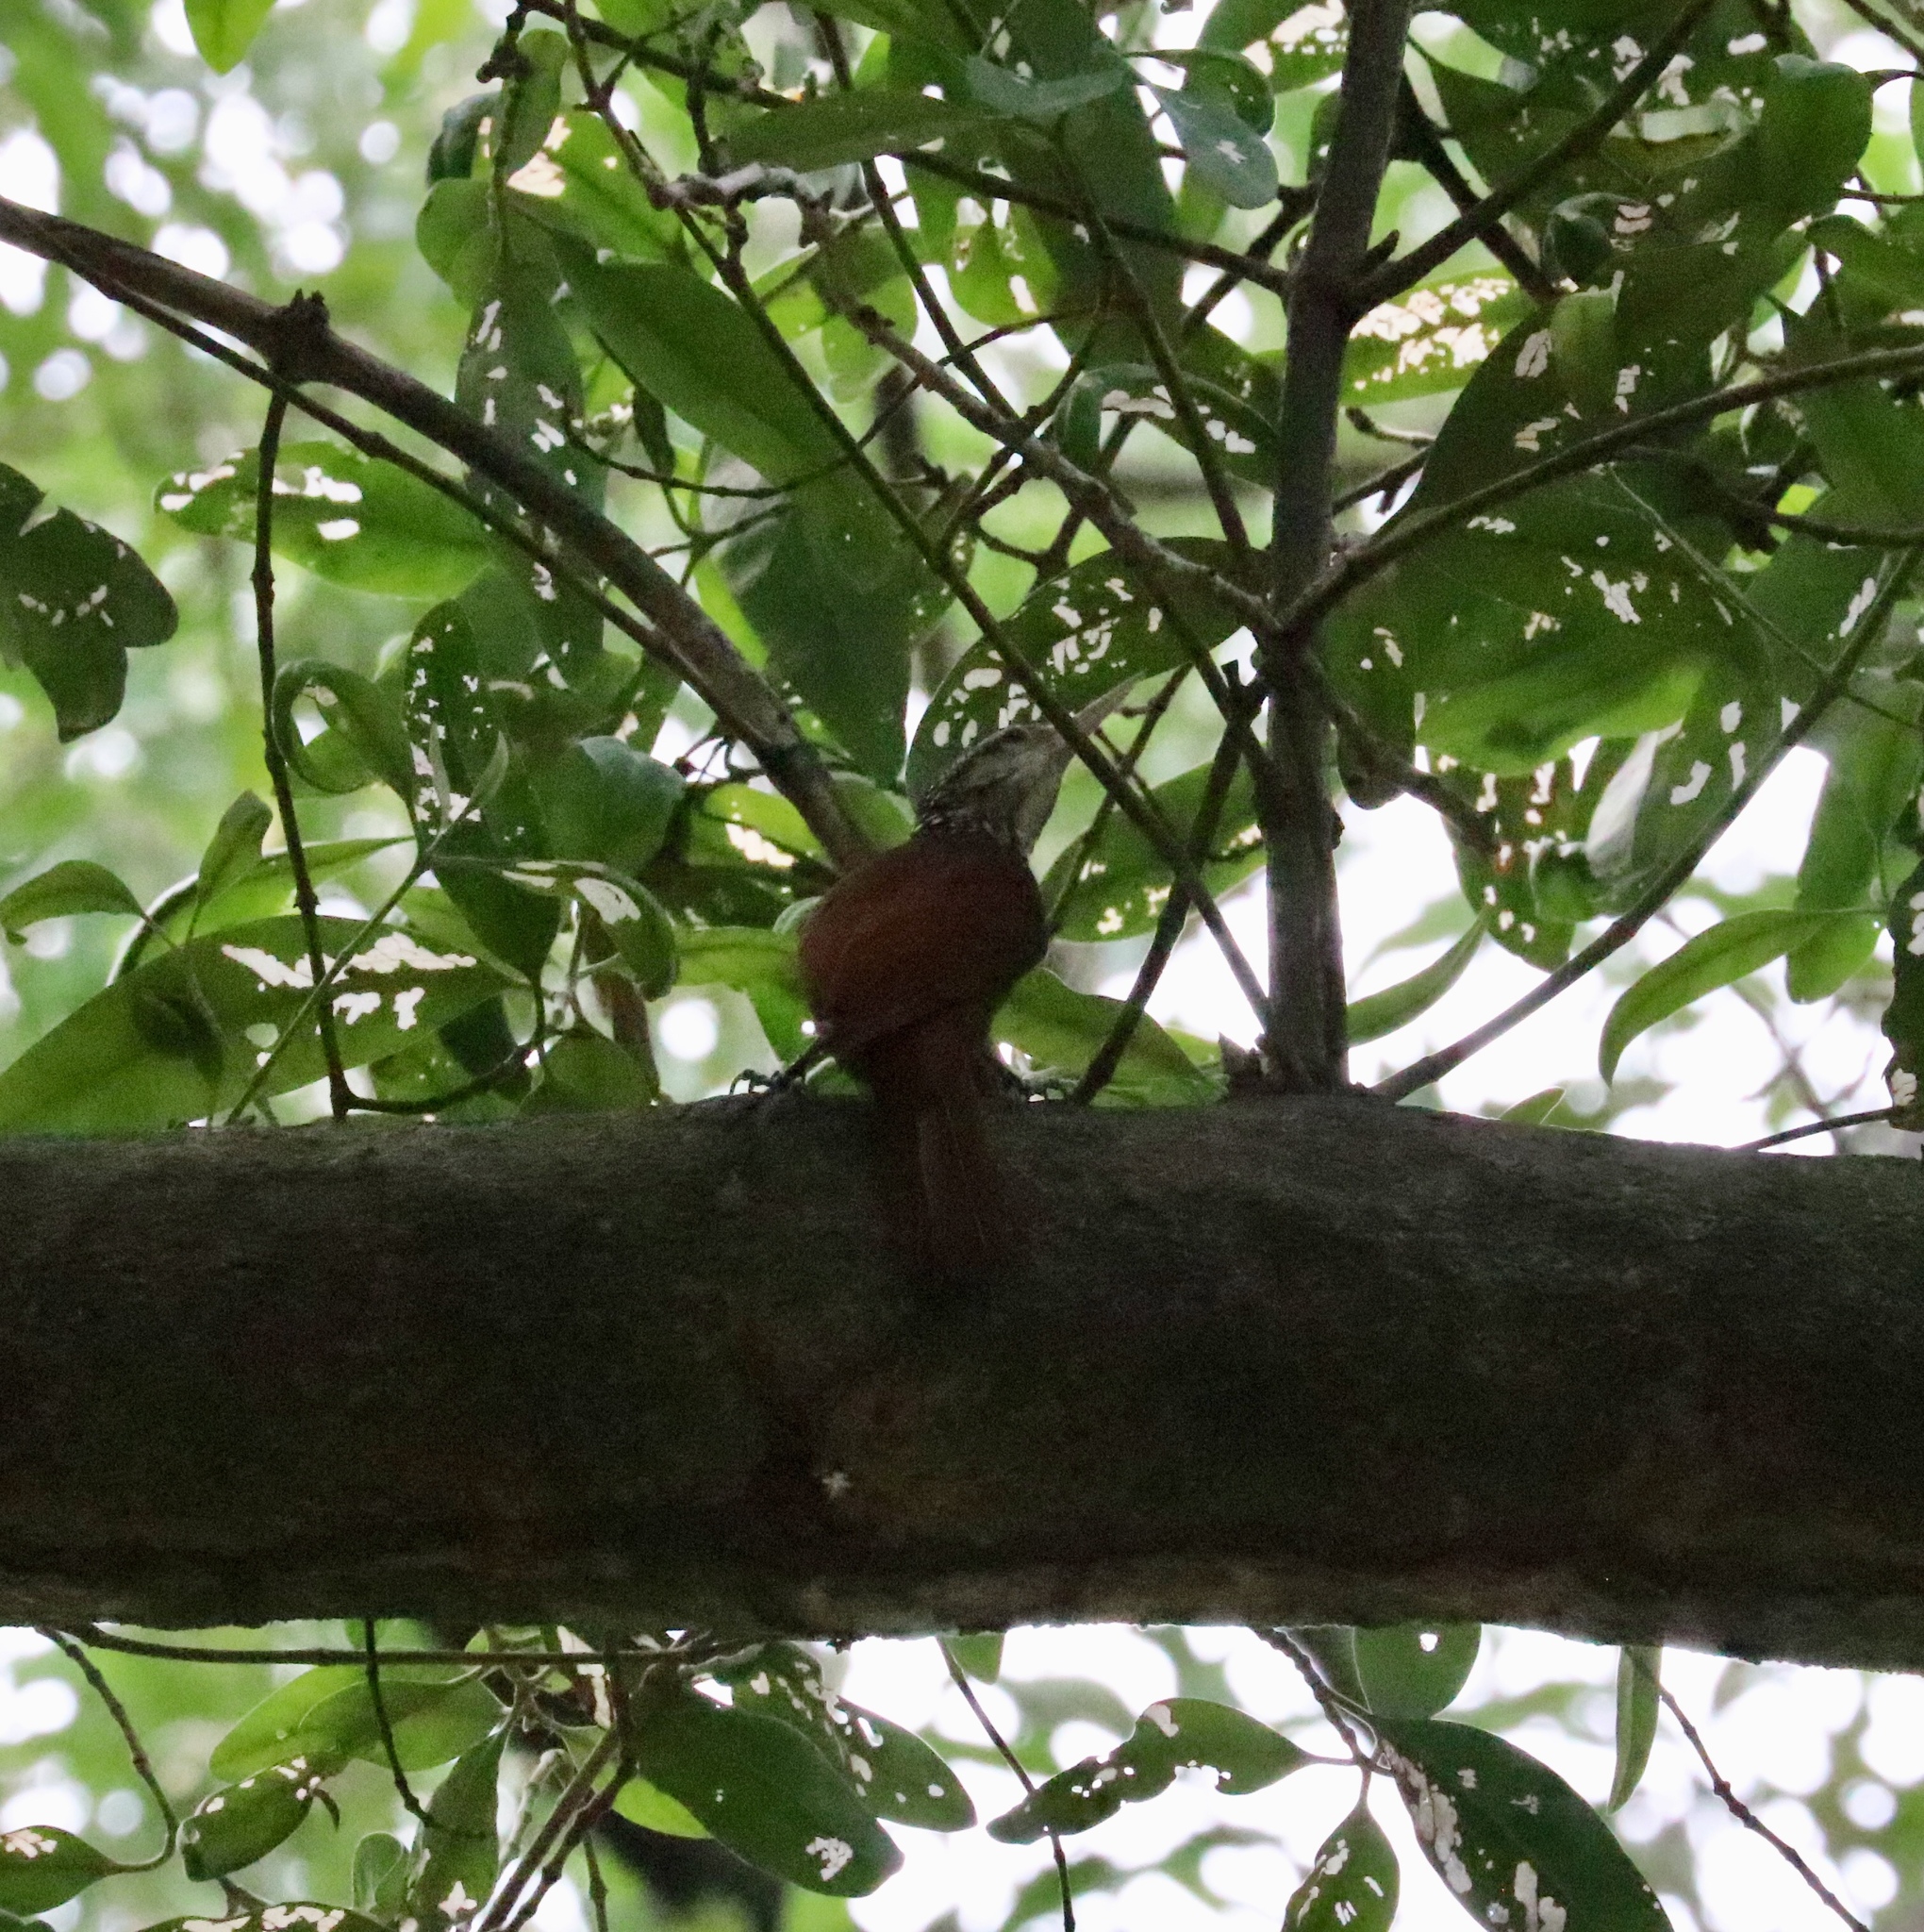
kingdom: Animalia
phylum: Chordata
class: Aves
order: Passeriformes
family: Furnariidae
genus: Xiphorhynchus
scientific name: Xiphorhynchus picus
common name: Straight-billed woodcreeper
